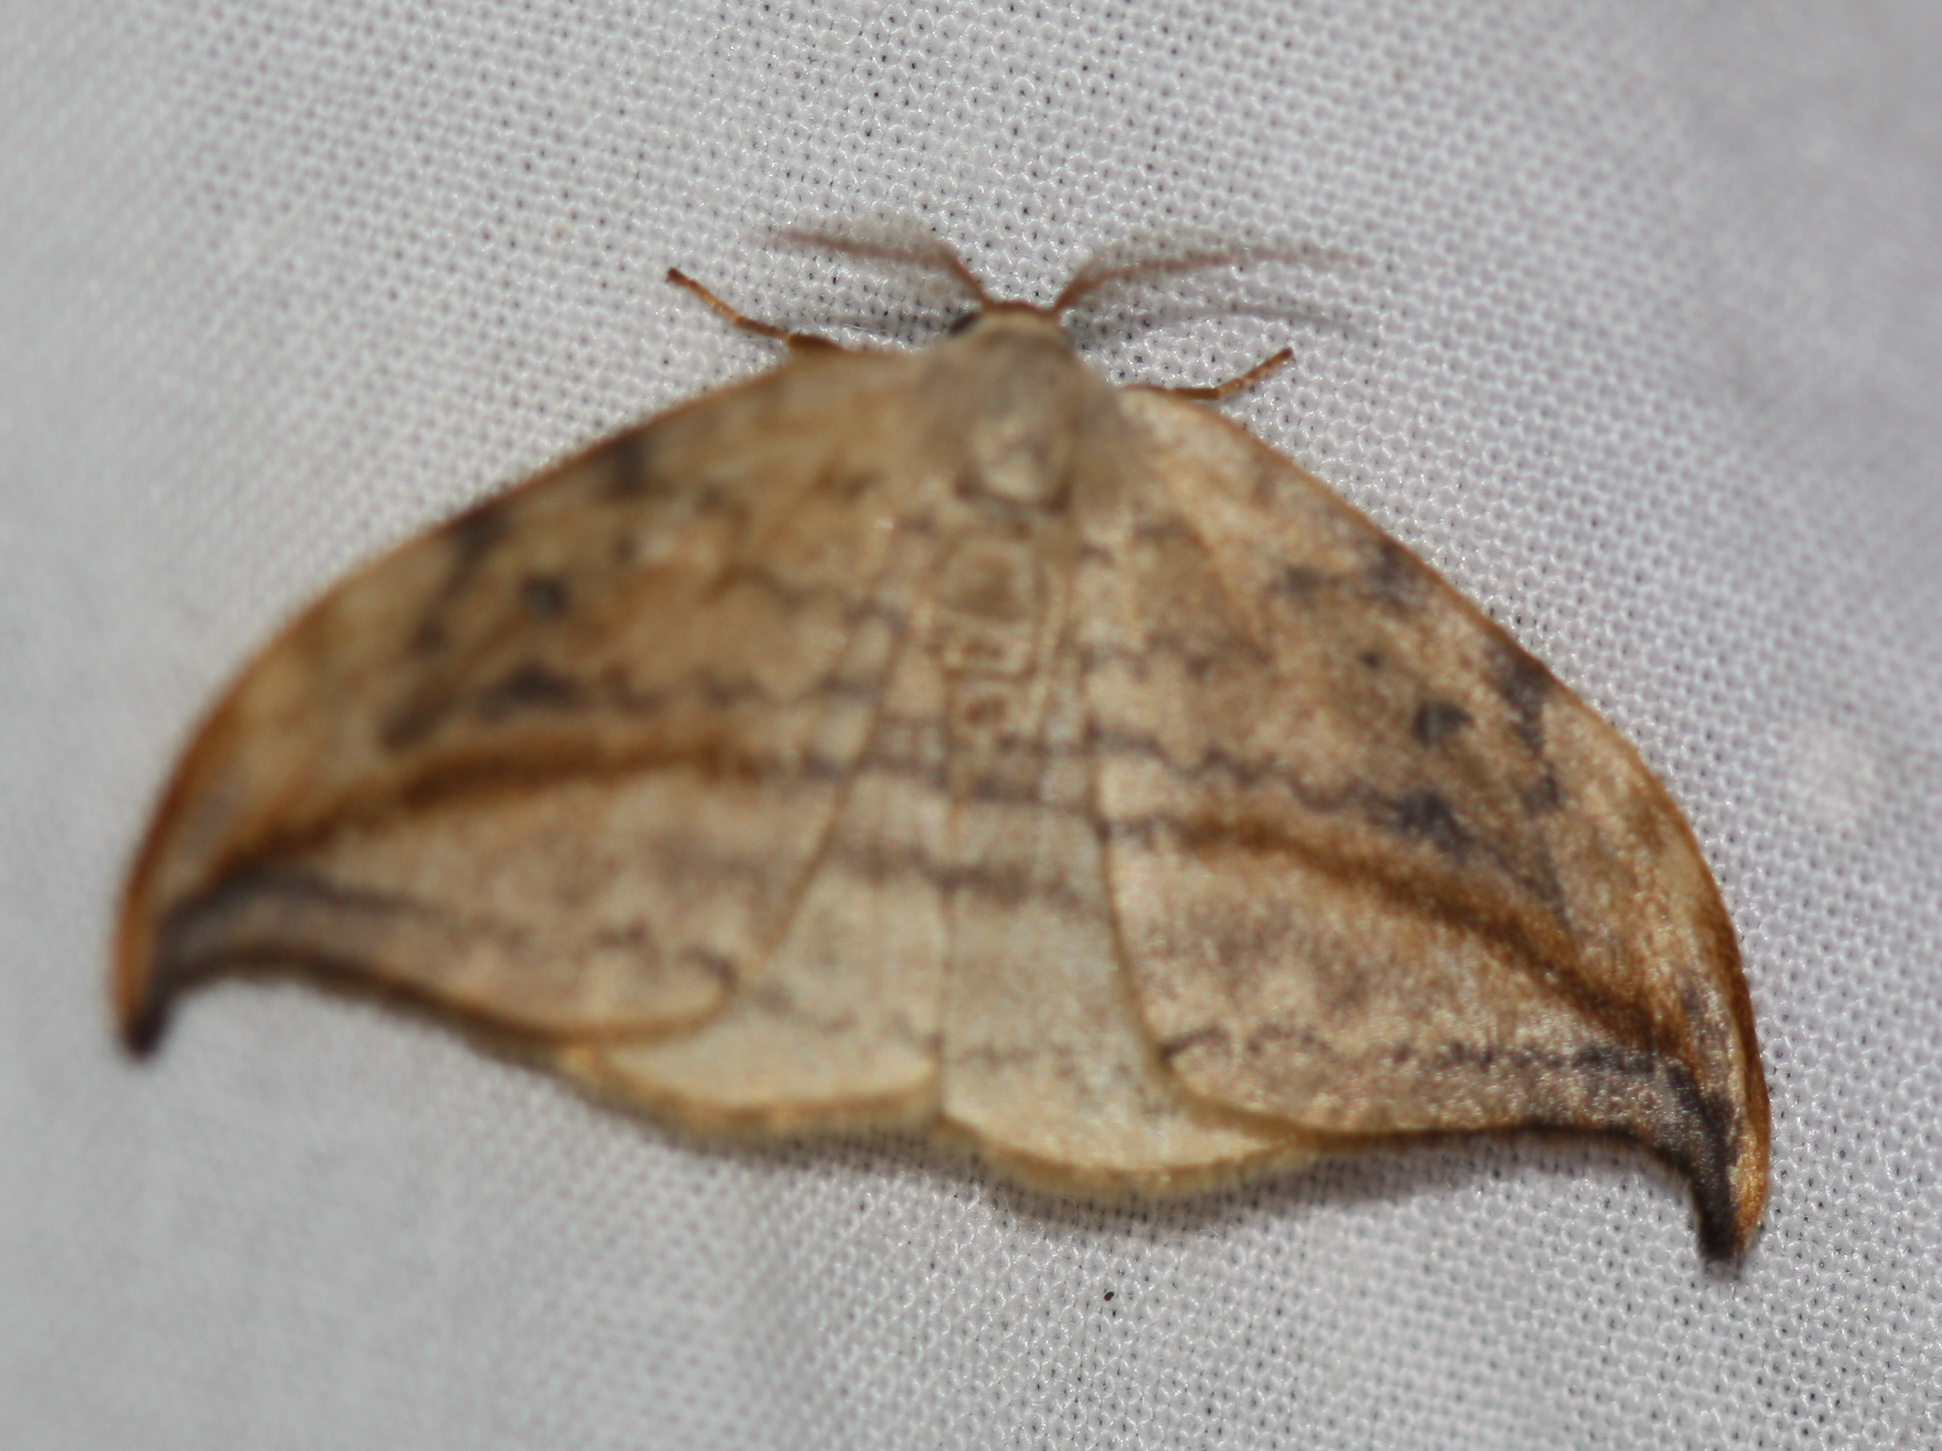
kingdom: Animalia
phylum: Arthropoda
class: Insecta
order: Lepidoptera
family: Drepanidae
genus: Drepana
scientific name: Drepana arcuata
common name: Arched hooktip moth
